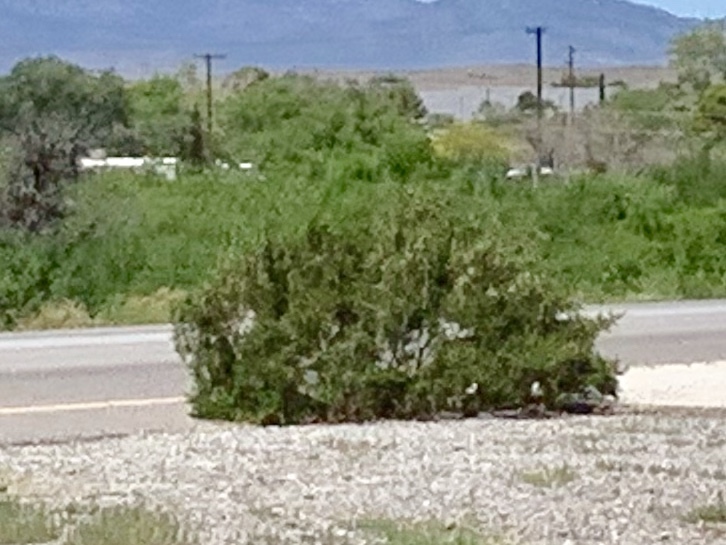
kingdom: Plantae
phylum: Tracheophyta
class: Magnoliopsida
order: Zygophyllales
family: Zygophyllaceae
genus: Larrea
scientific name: Larrea tridentata
